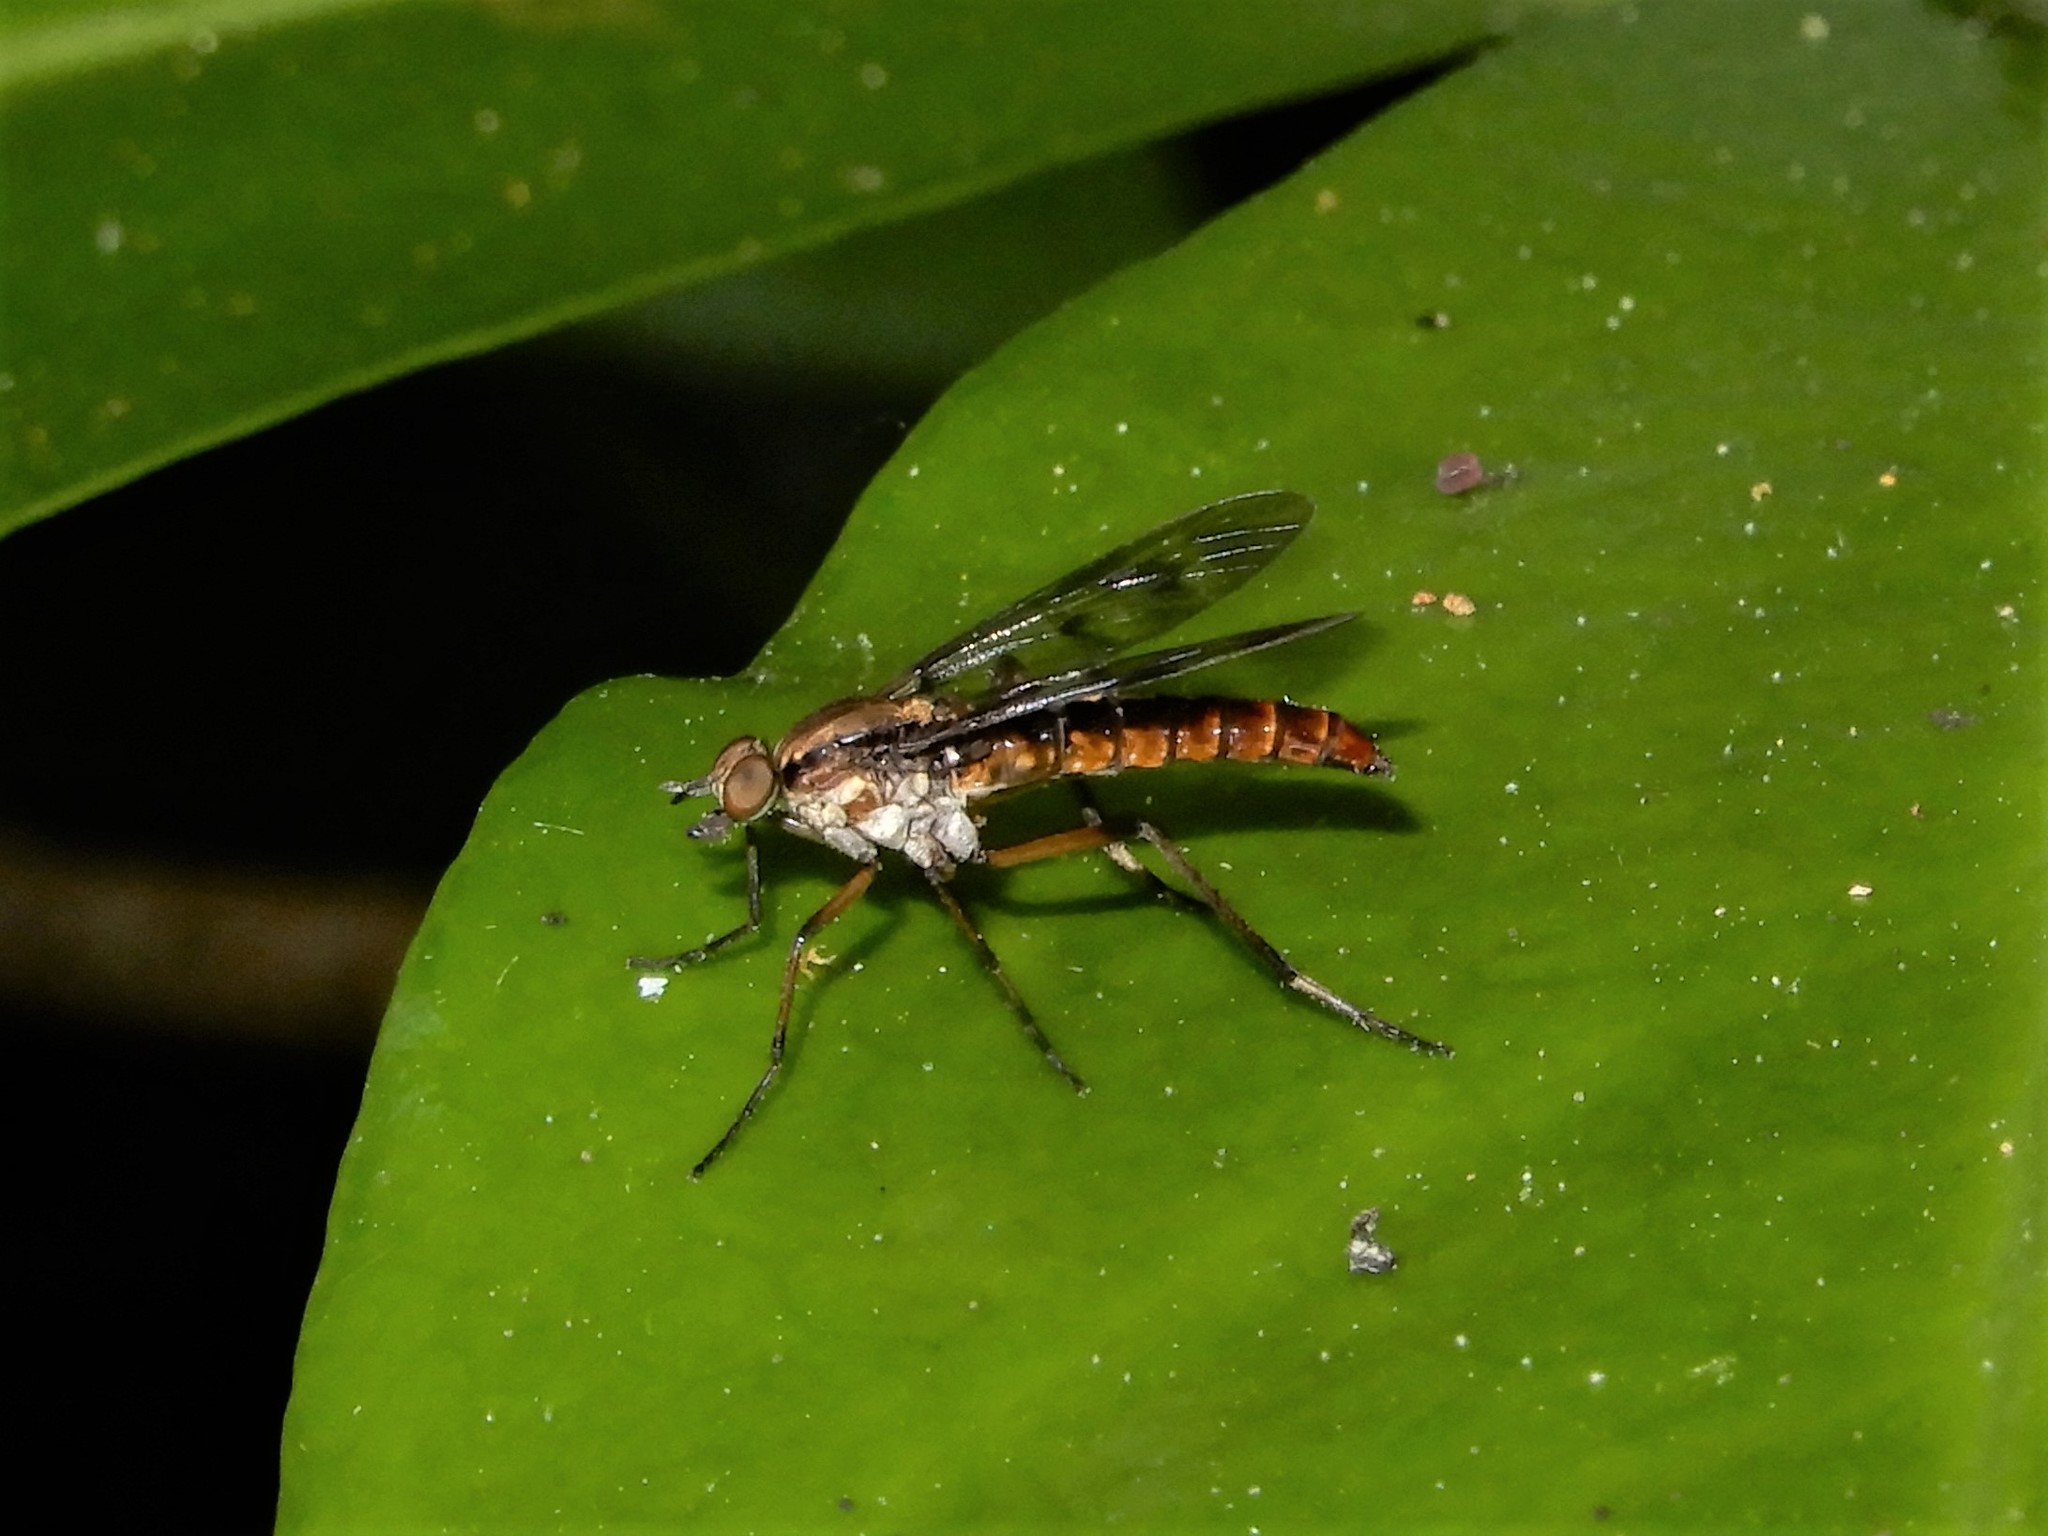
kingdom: Animalia
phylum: Arthropoda
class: Insecta
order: Diptera
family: Therevidae
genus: Anabarhynchus
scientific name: Anabarhynchus micans
